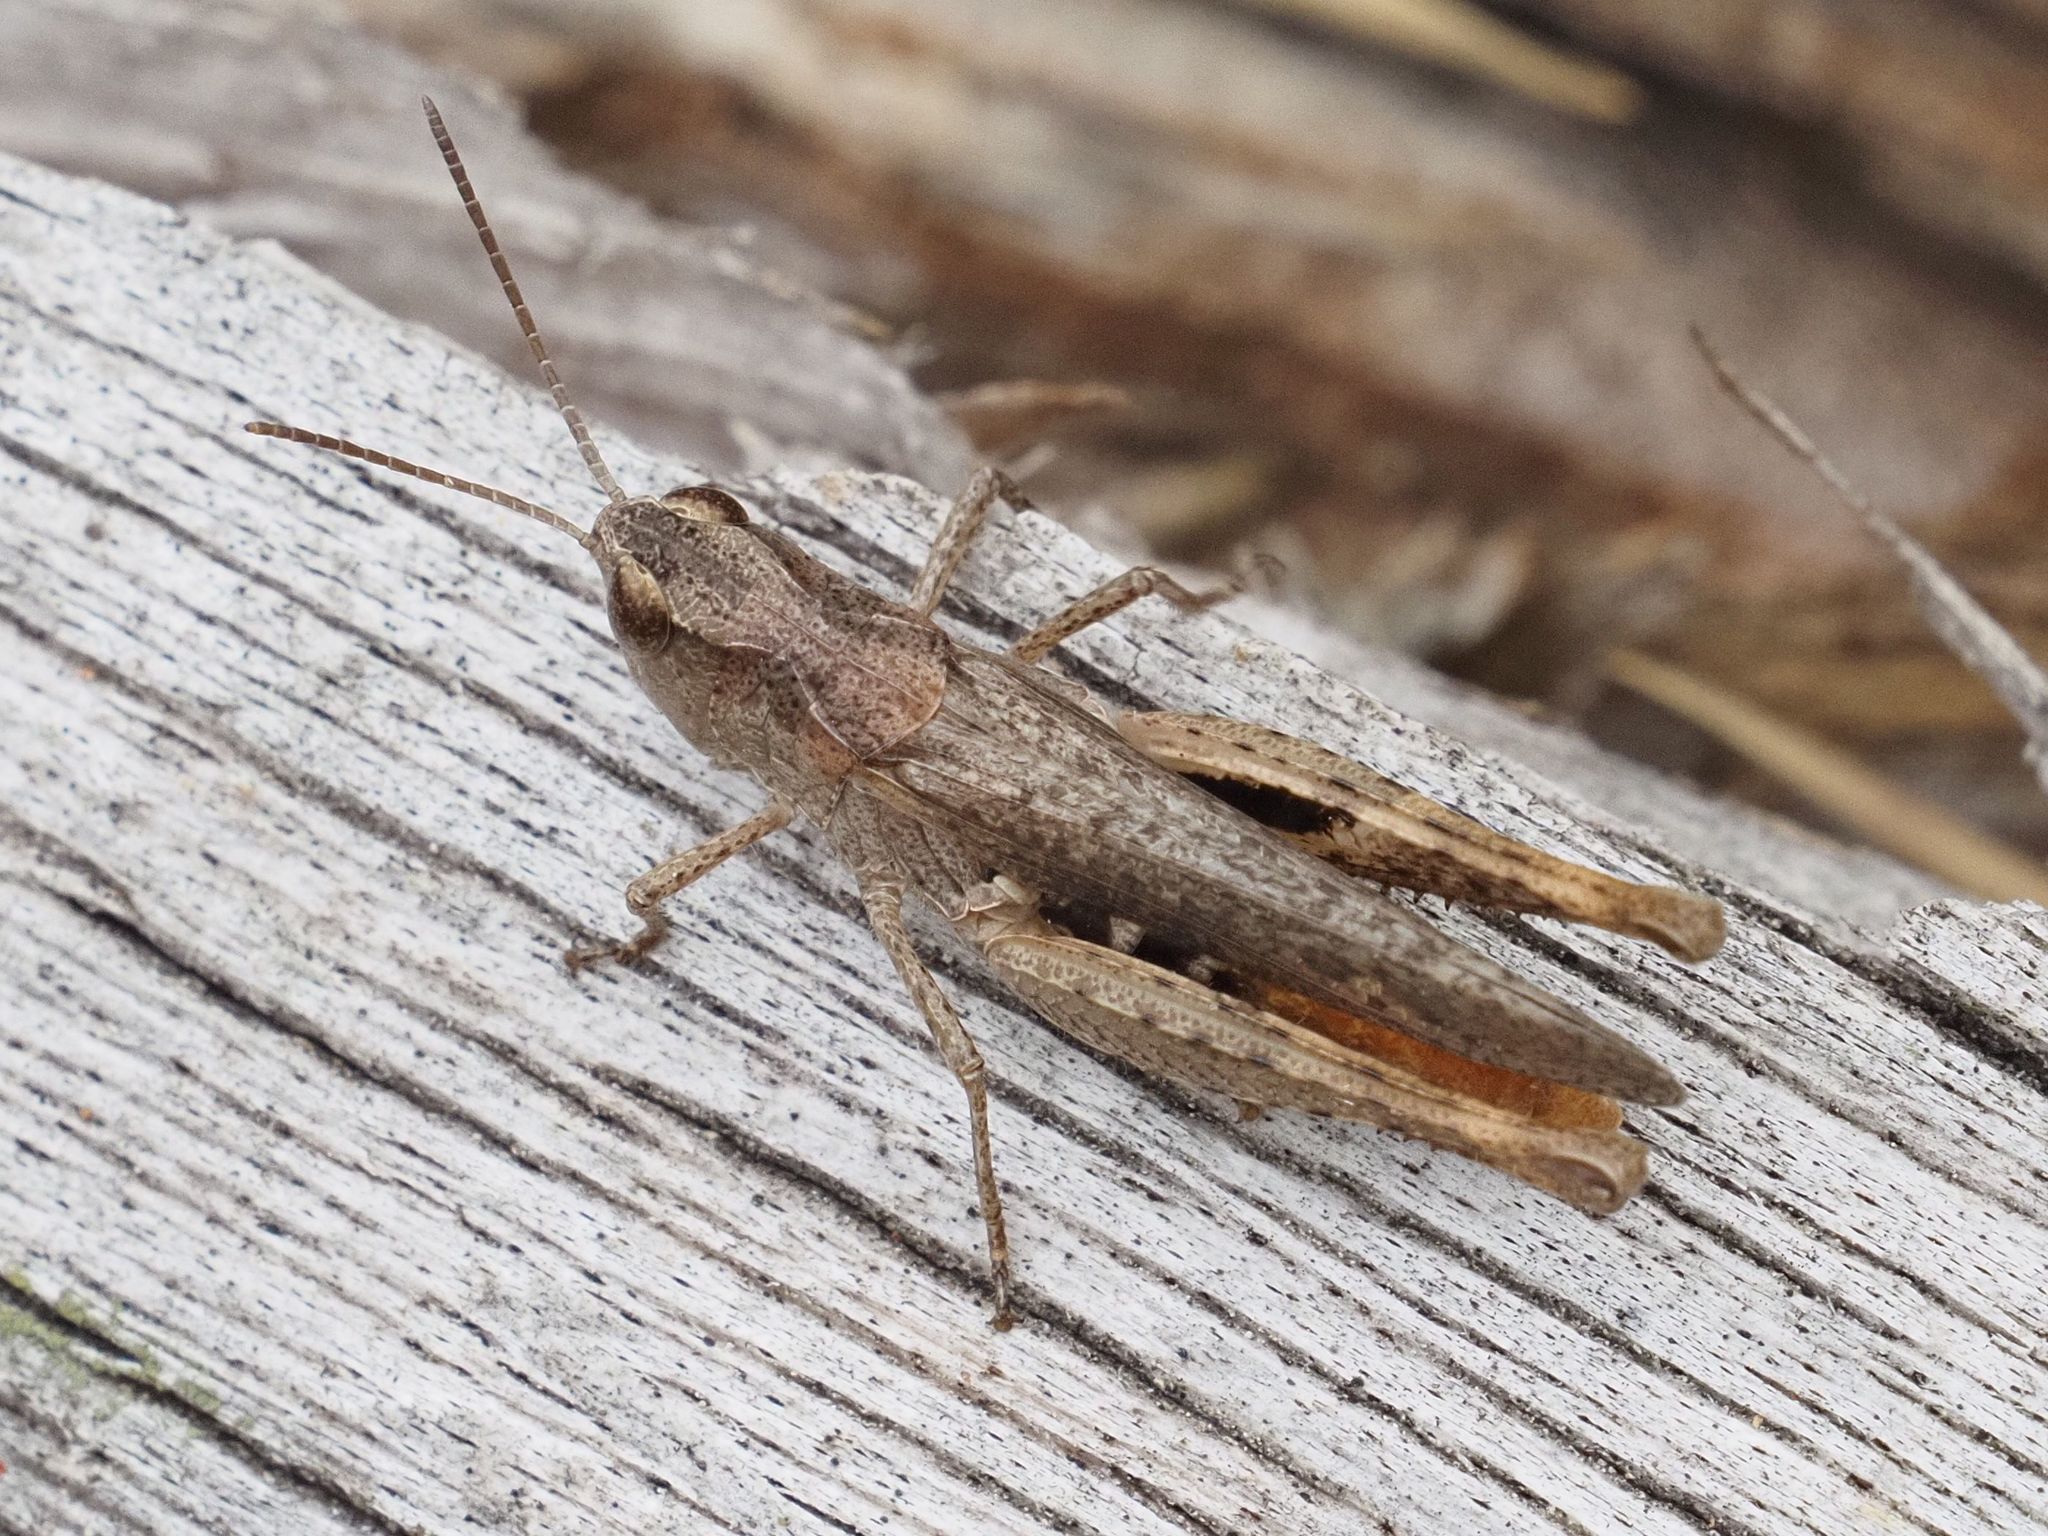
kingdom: Animalia
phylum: Arthropoda
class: Insecta
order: Orthoptera
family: Acrididae
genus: Chorthippus
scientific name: Chorthippus vagans
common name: Heath grasshopper
